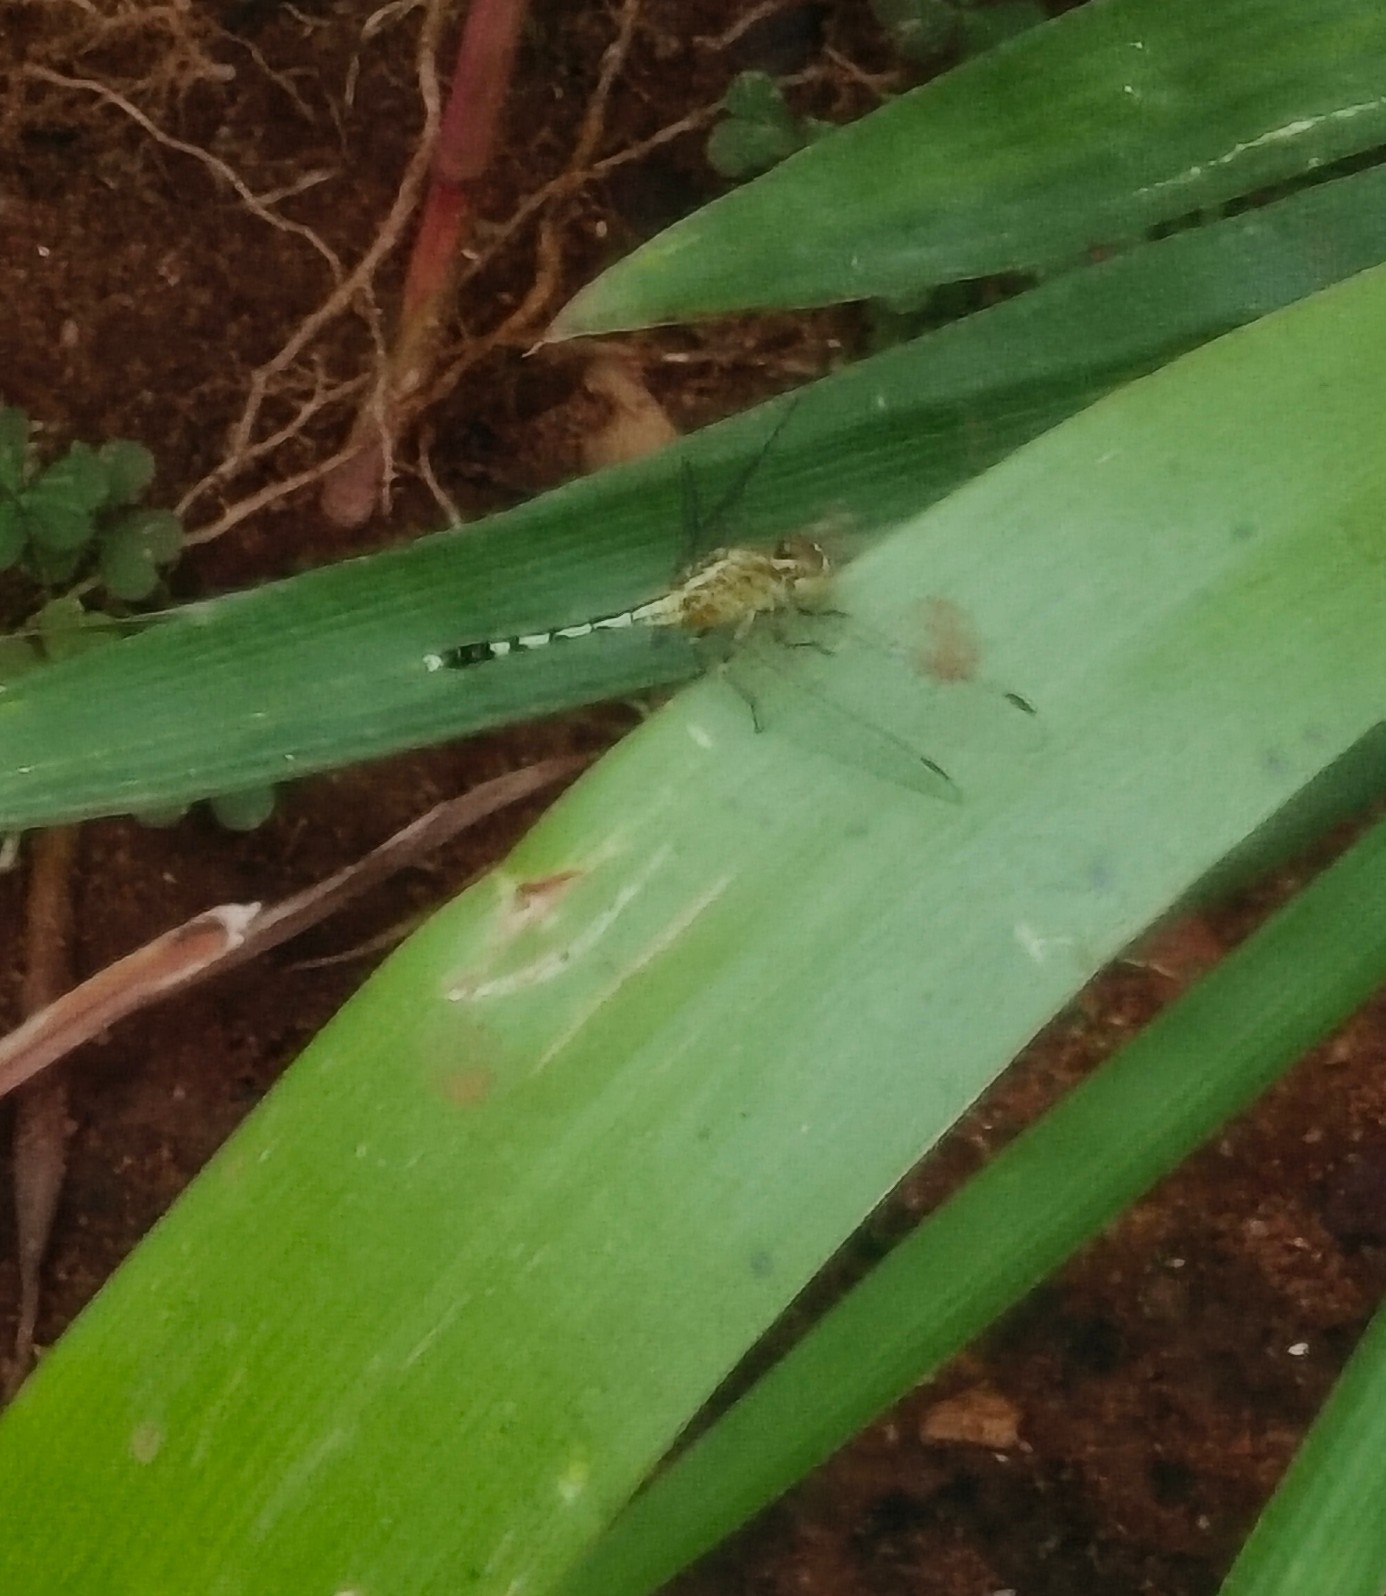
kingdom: Animalia
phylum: Arthropoda
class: Insecta
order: Odonata
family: Libellulidae
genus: Diplacodes
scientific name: Diplacodes trivialis
